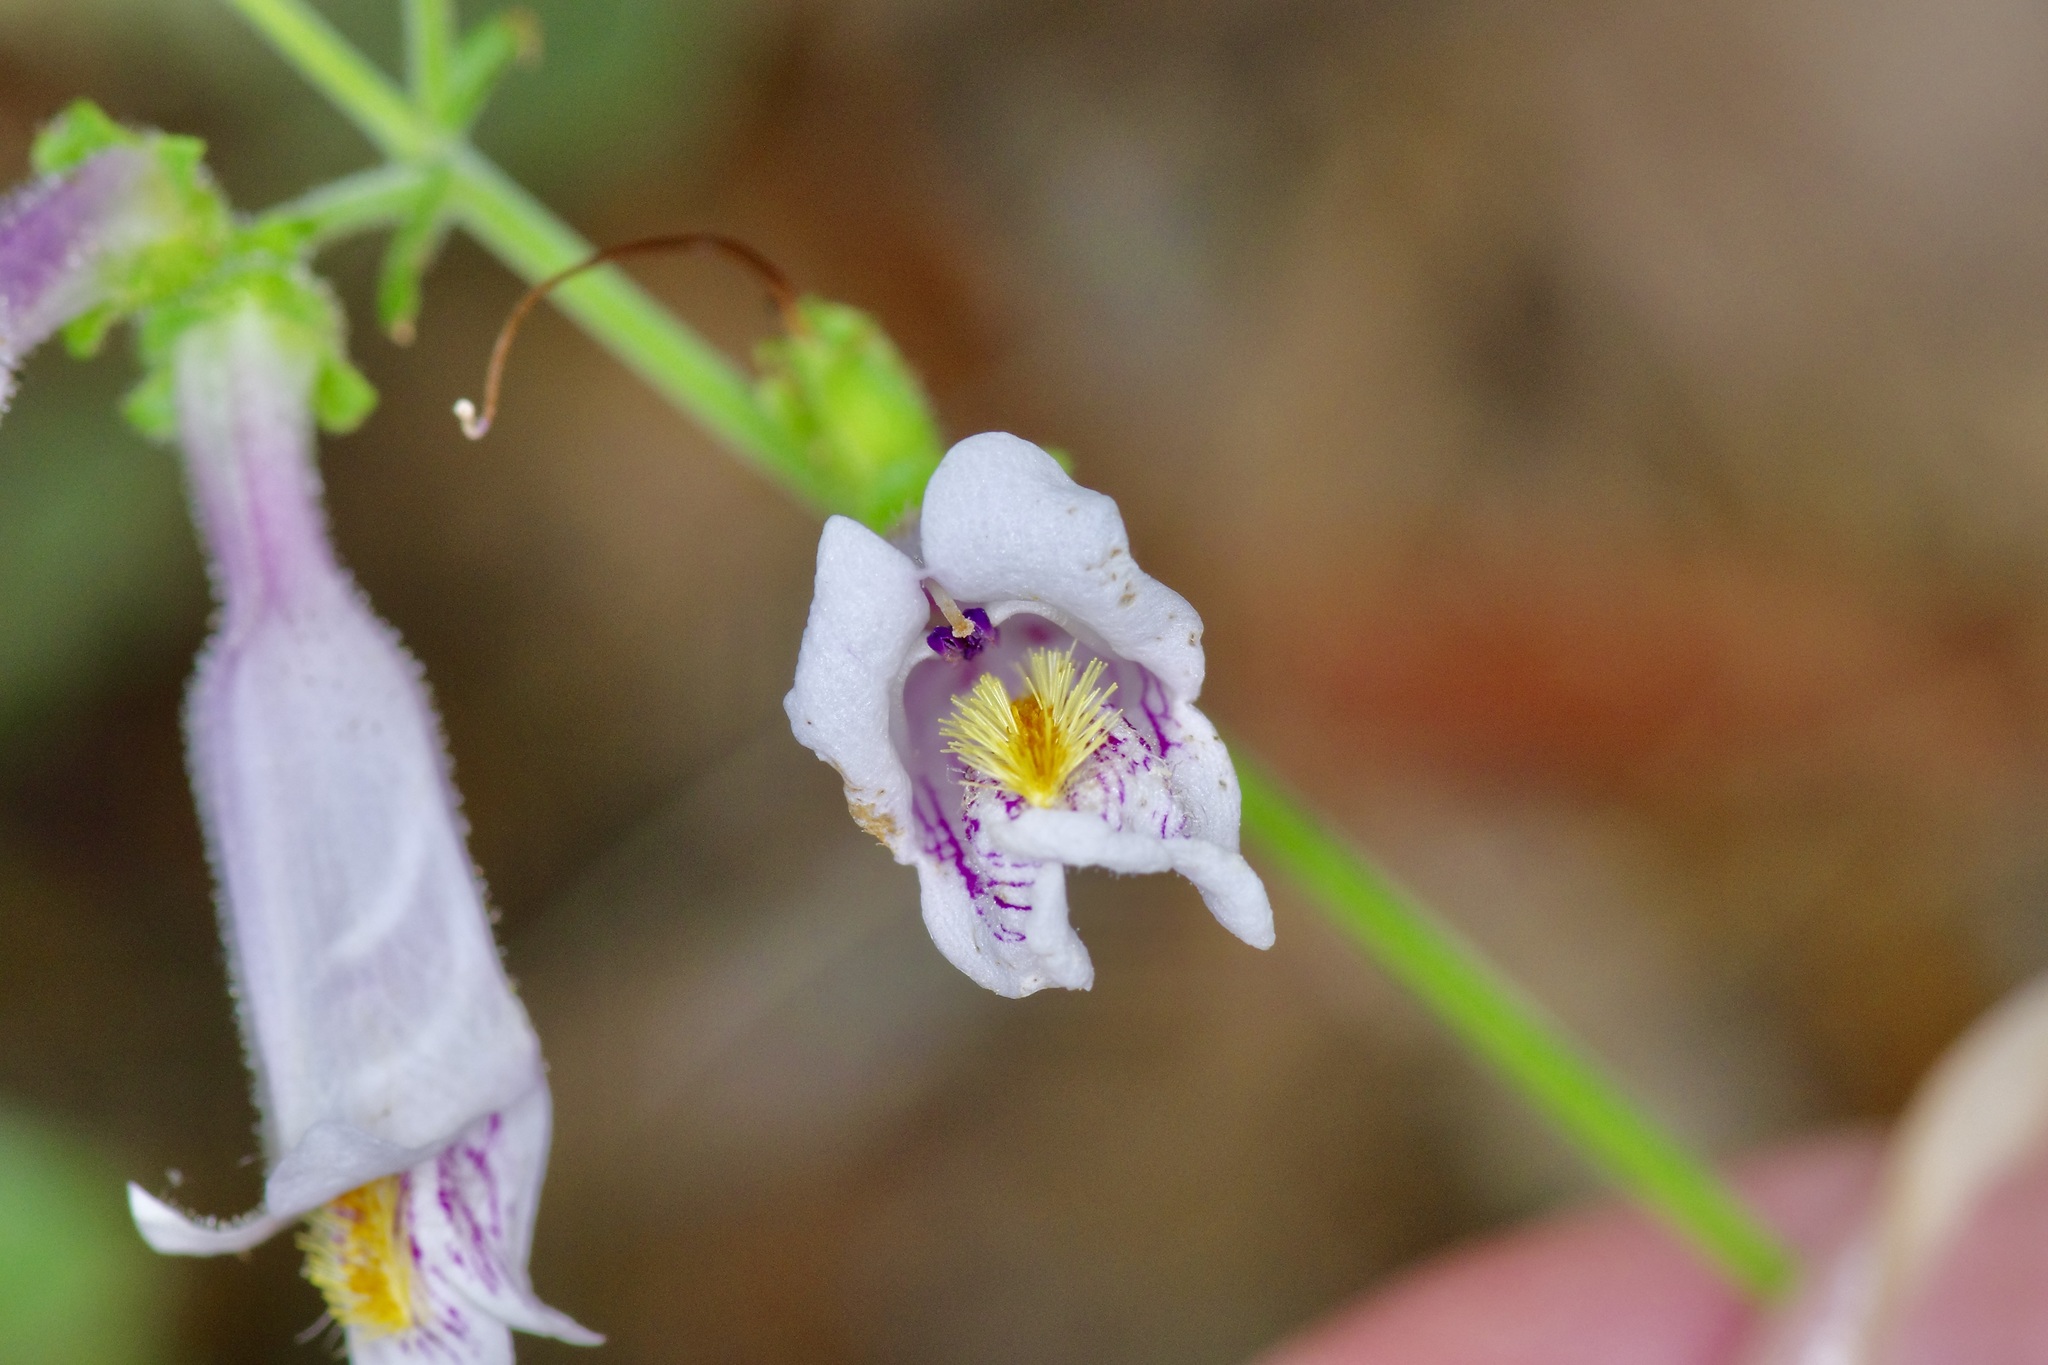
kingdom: Plantae
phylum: Tracheophyta
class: Magnoliopsida
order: Lamiales
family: Plantaginaceae
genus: Penstemon
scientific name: Penstemon laxiflorus
